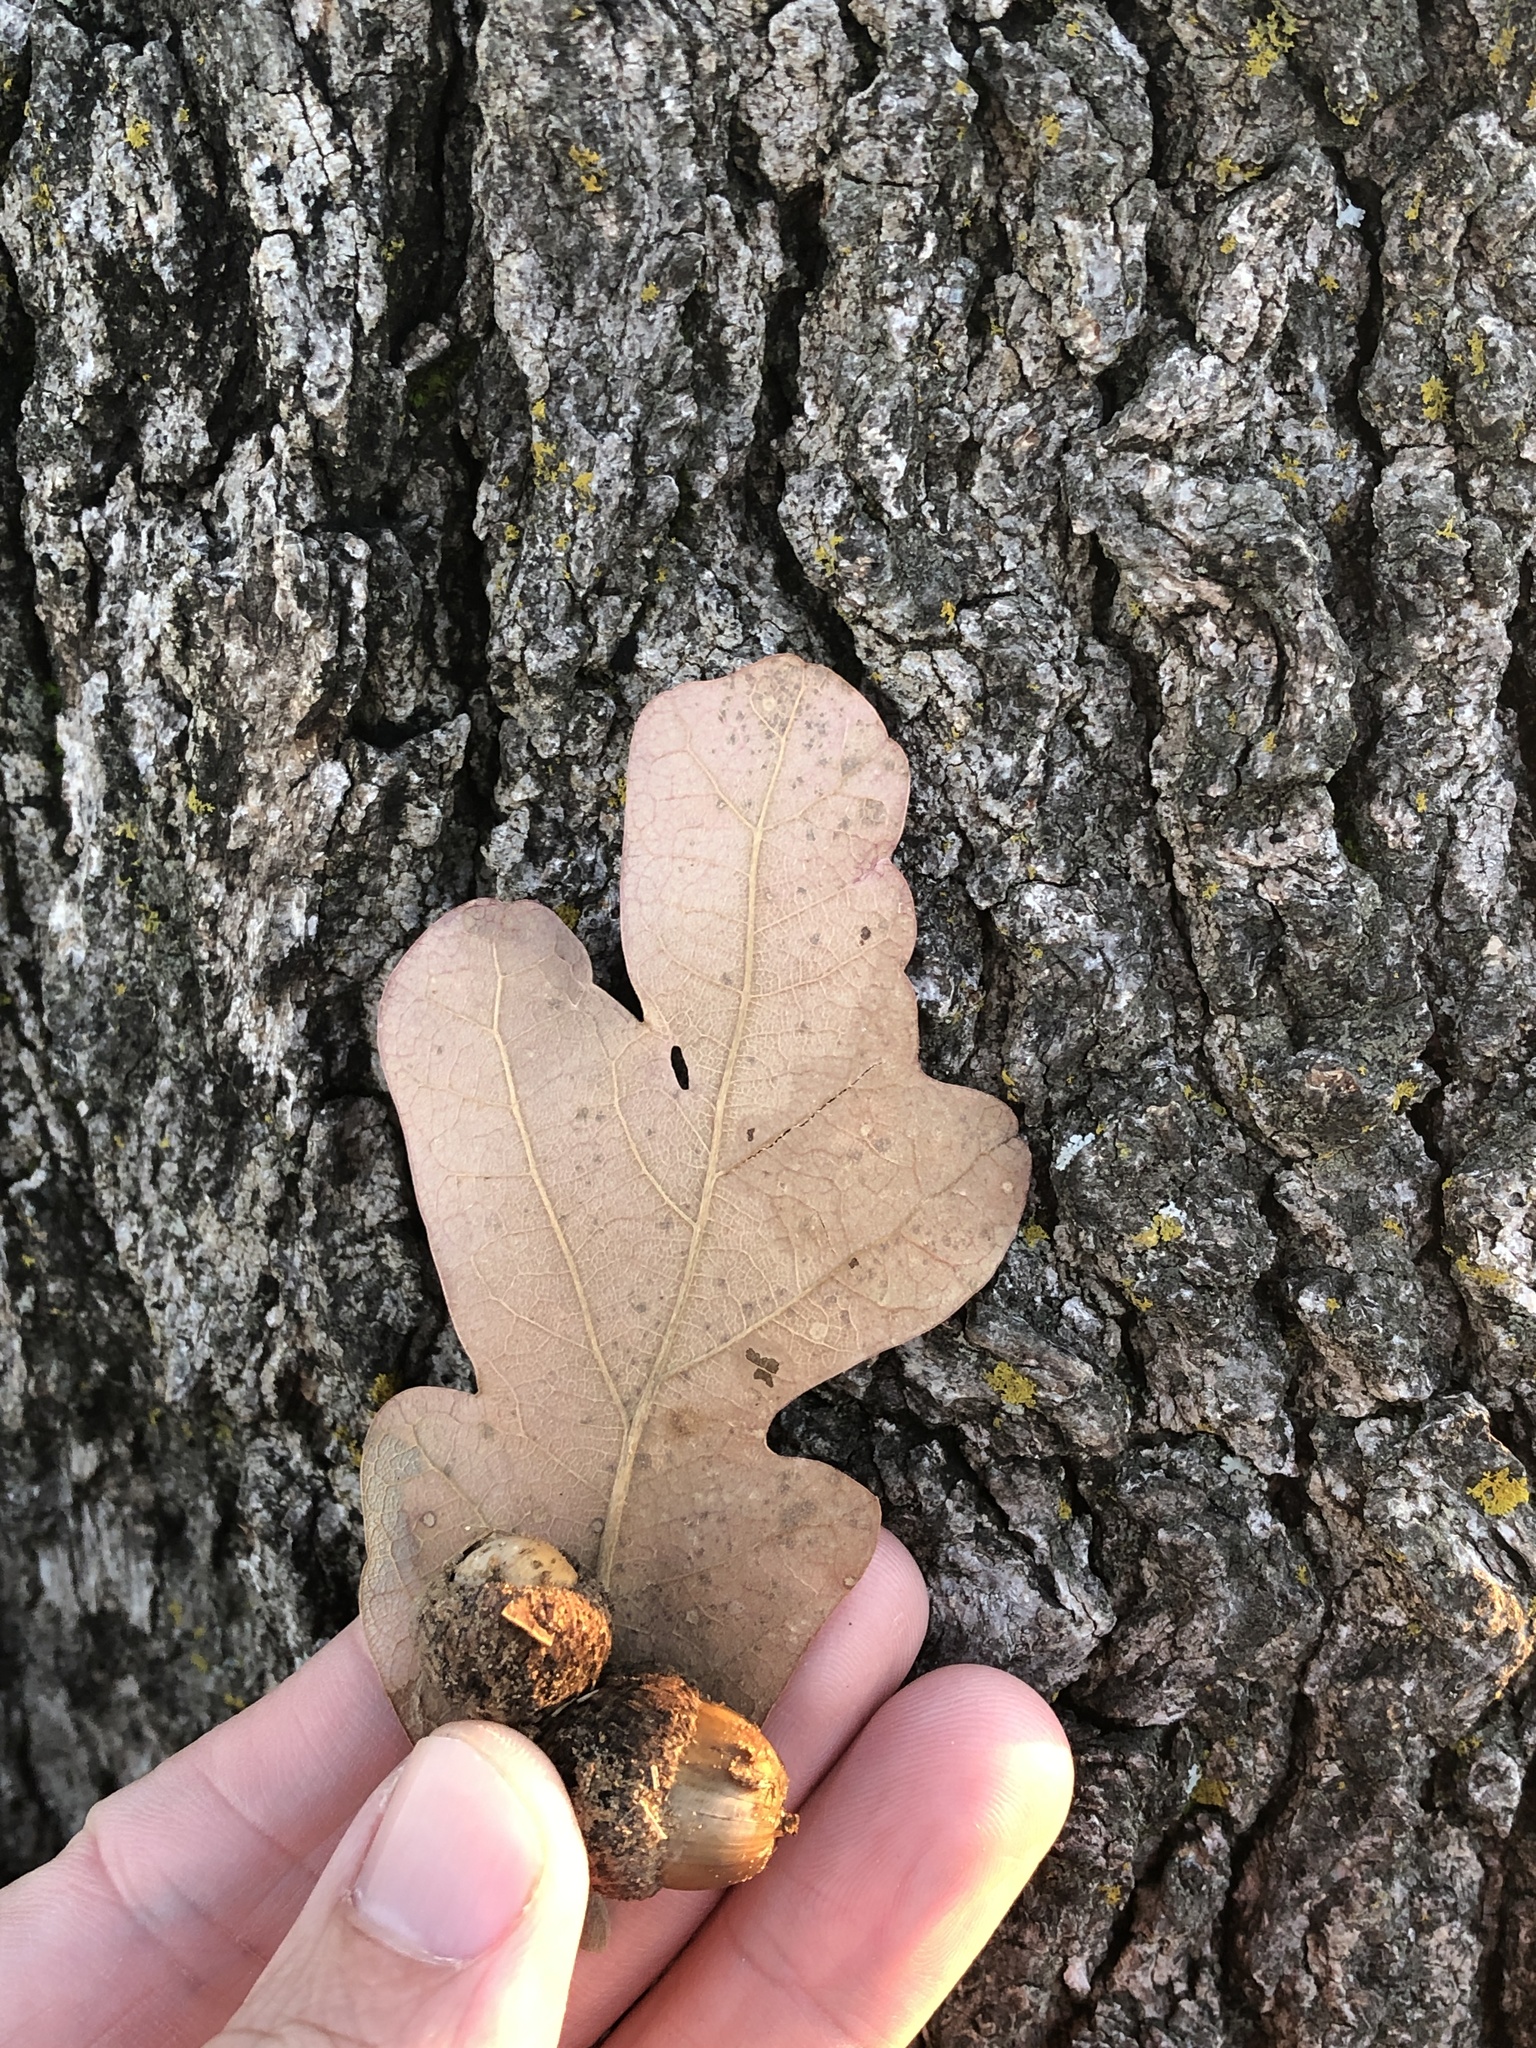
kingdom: Plantae
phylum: Tracheophyta
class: Magnoliopsida
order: Fagales
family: Fagaceae
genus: Quercus
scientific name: Quercus stellata
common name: Post oak
